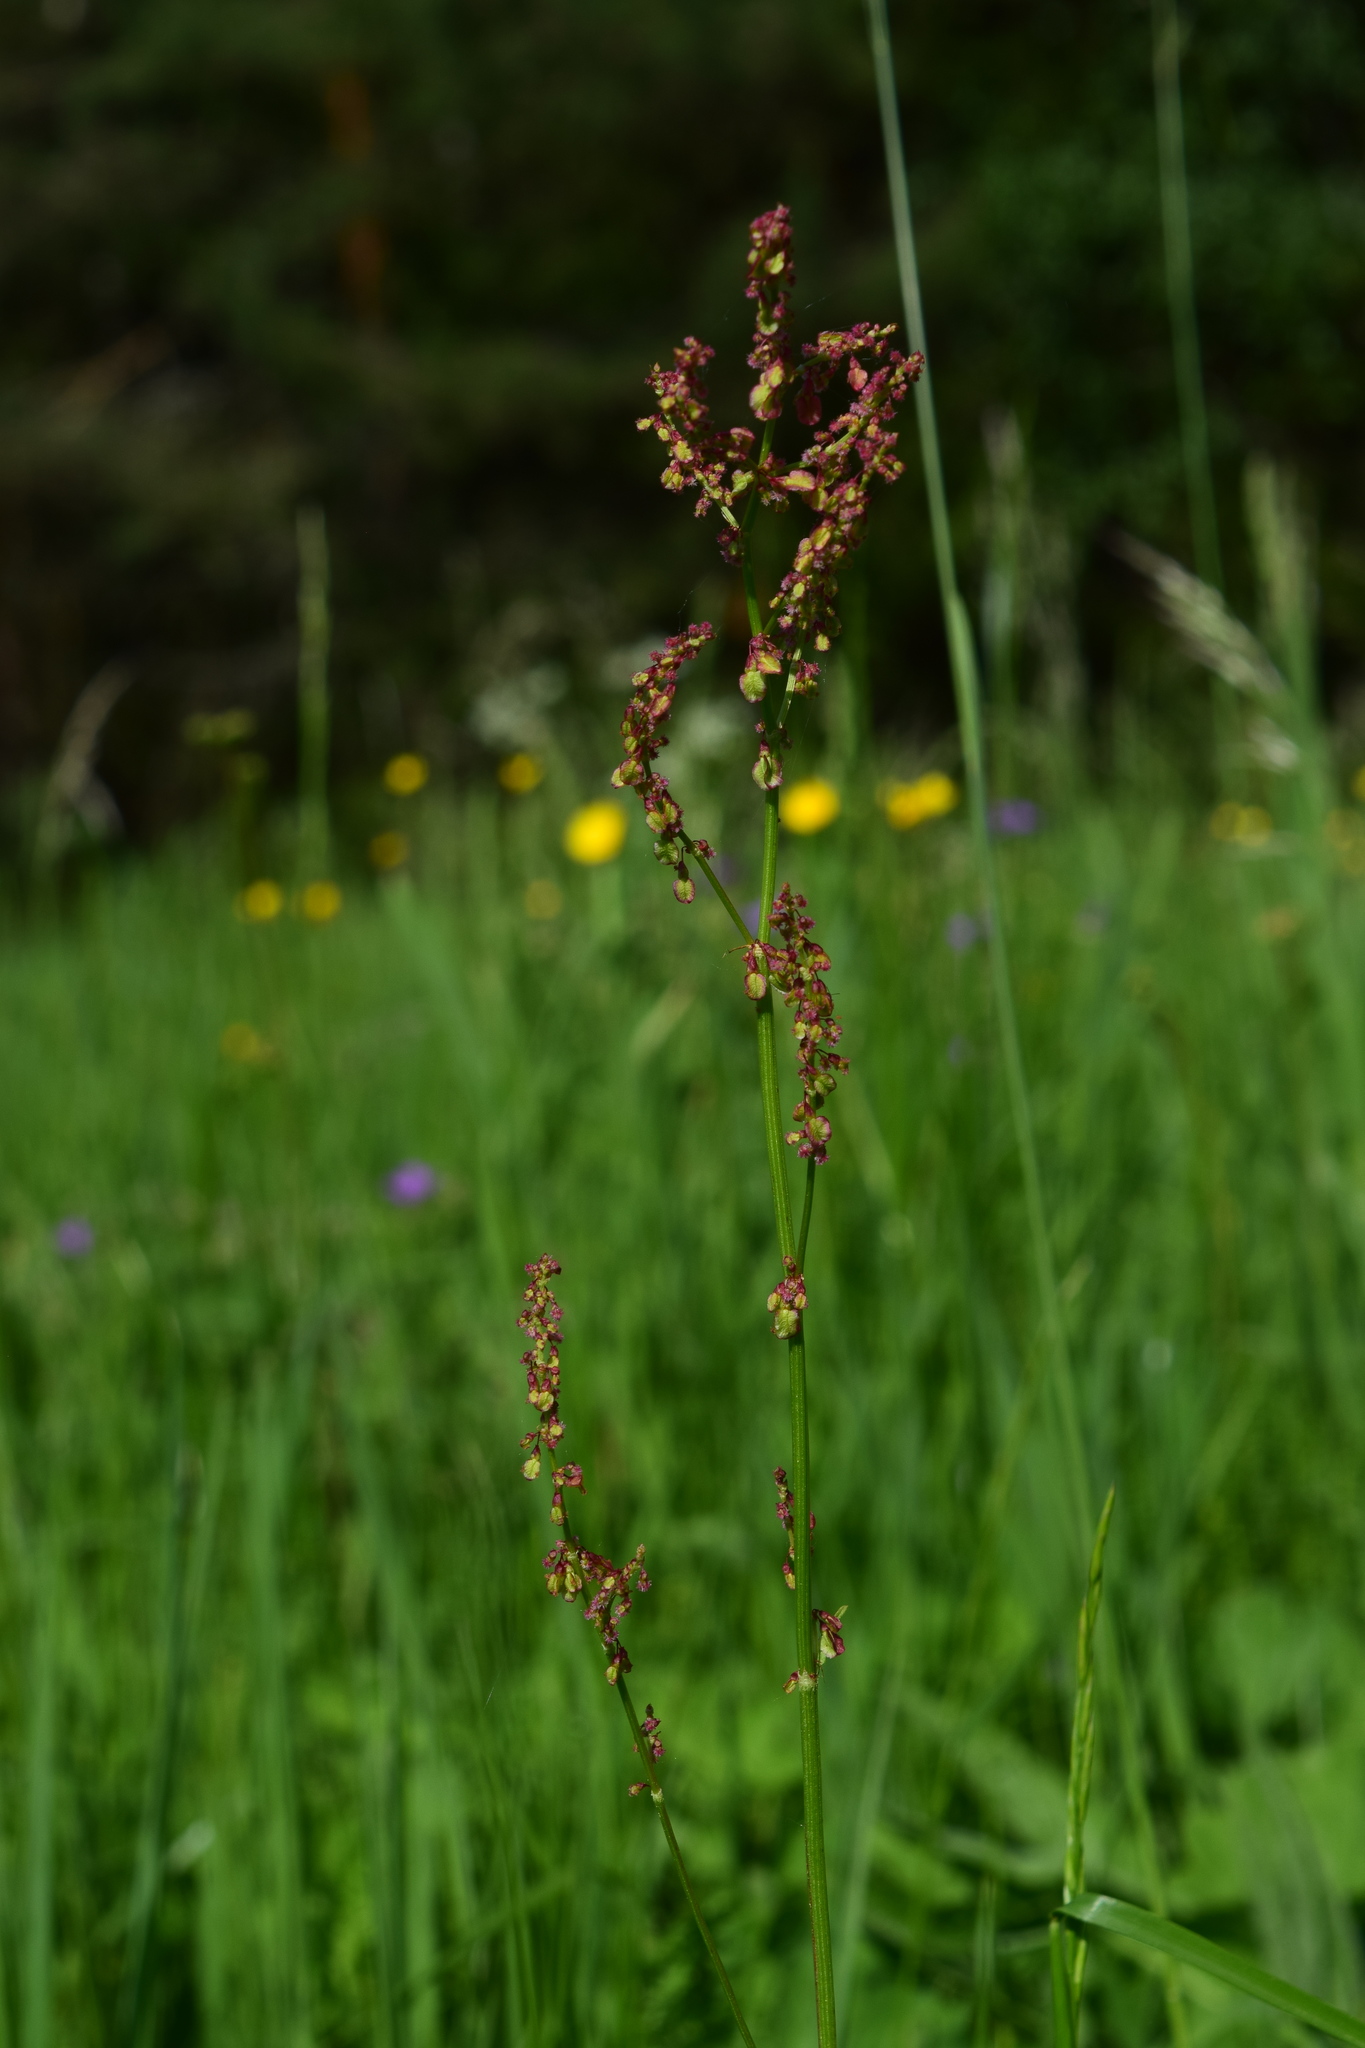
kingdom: Plantae
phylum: Tracheophyta
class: Magnoliopsida
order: Caryophyllales
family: Polygonaceae
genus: Rumex
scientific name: Rumex acetosa
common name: Garden sorrel
